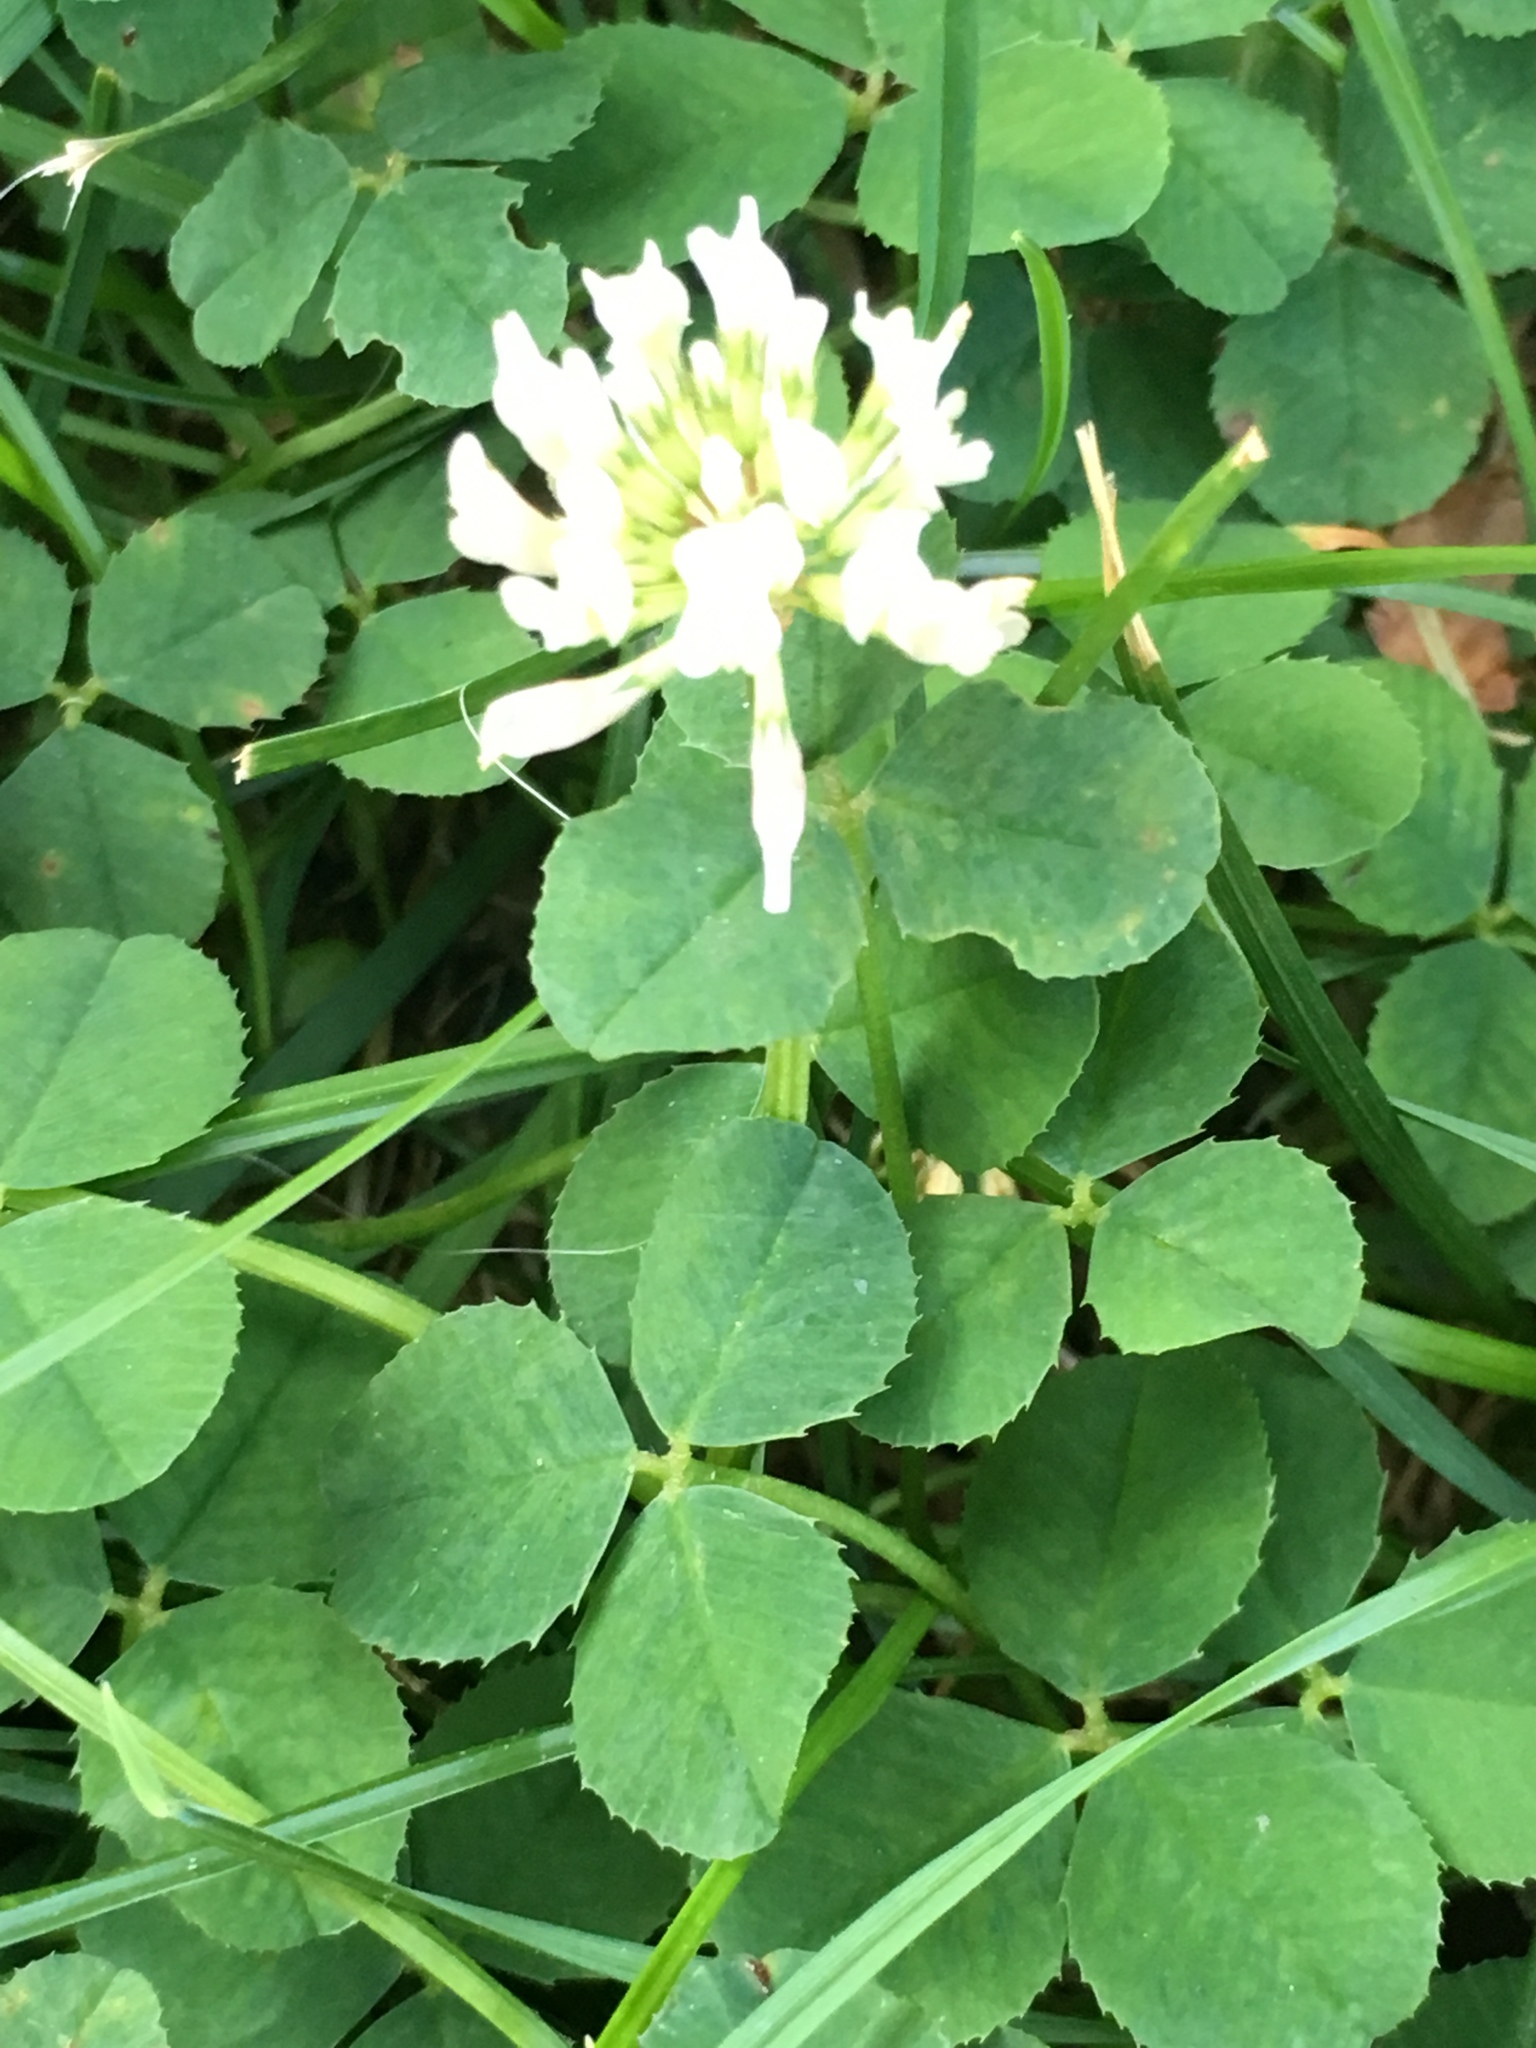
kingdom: Plantae
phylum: Tracheophyta
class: Magnoliopsida
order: Fabales
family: Fabaceae
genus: Trifolium
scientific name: Trifolium repens
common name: White clover
